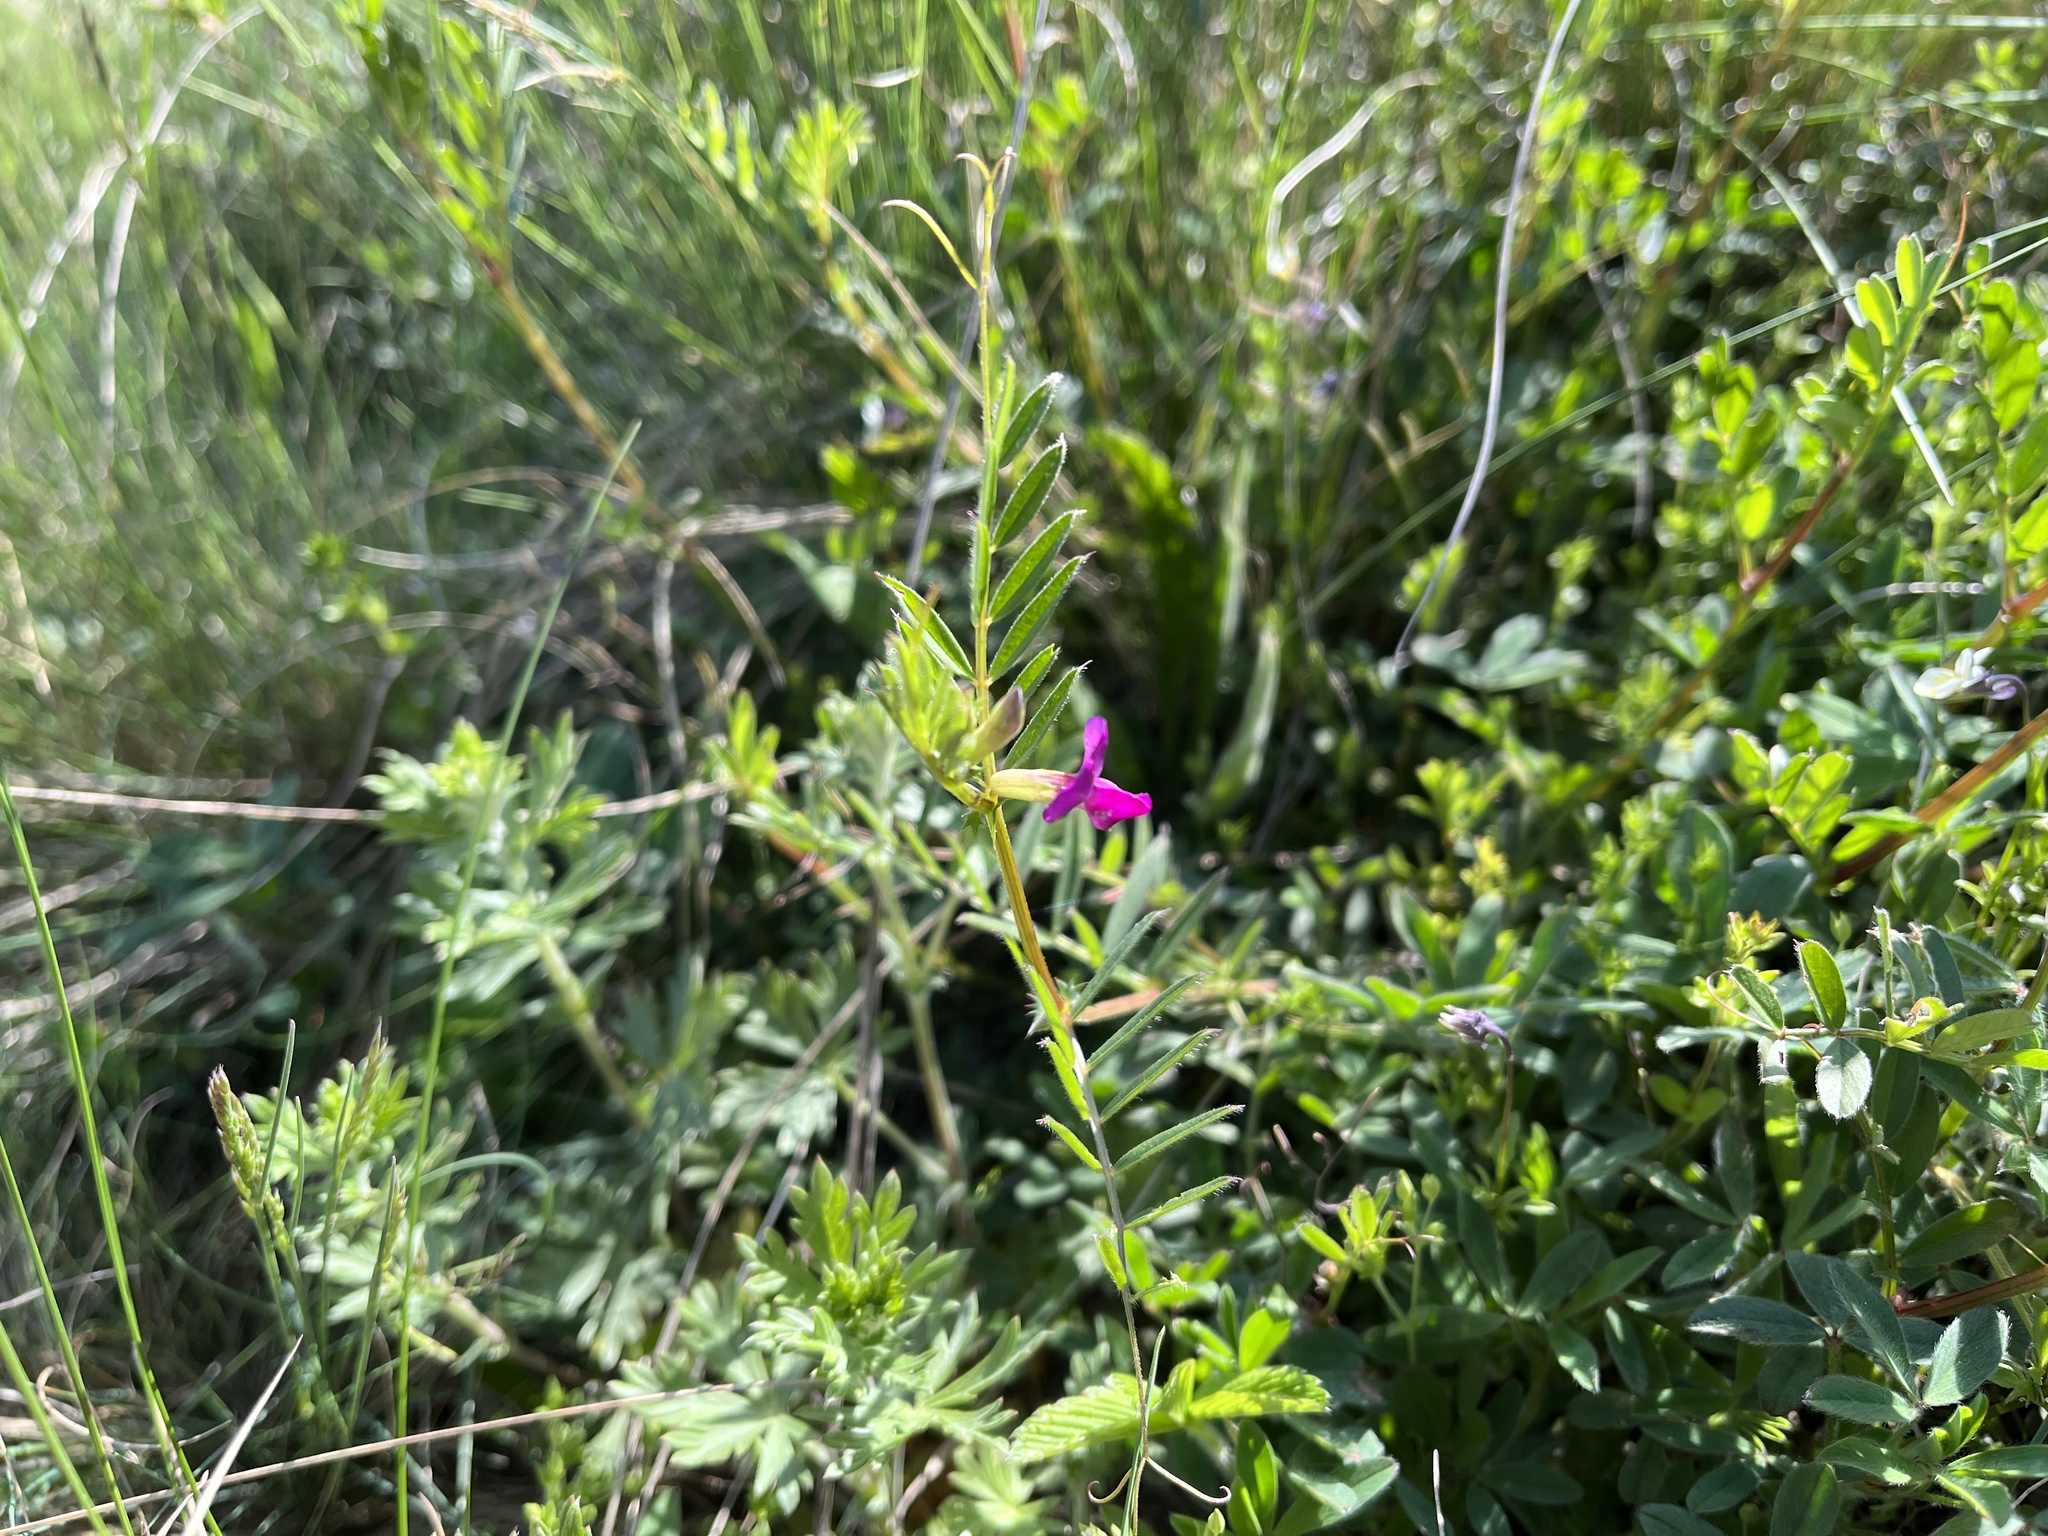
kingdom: Plantae
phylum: Tracheophyta
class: Magnoliopsida
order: Fabales
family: Fabaceae
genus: Vicia
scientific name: Vicia sativa
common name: Garden vetch
